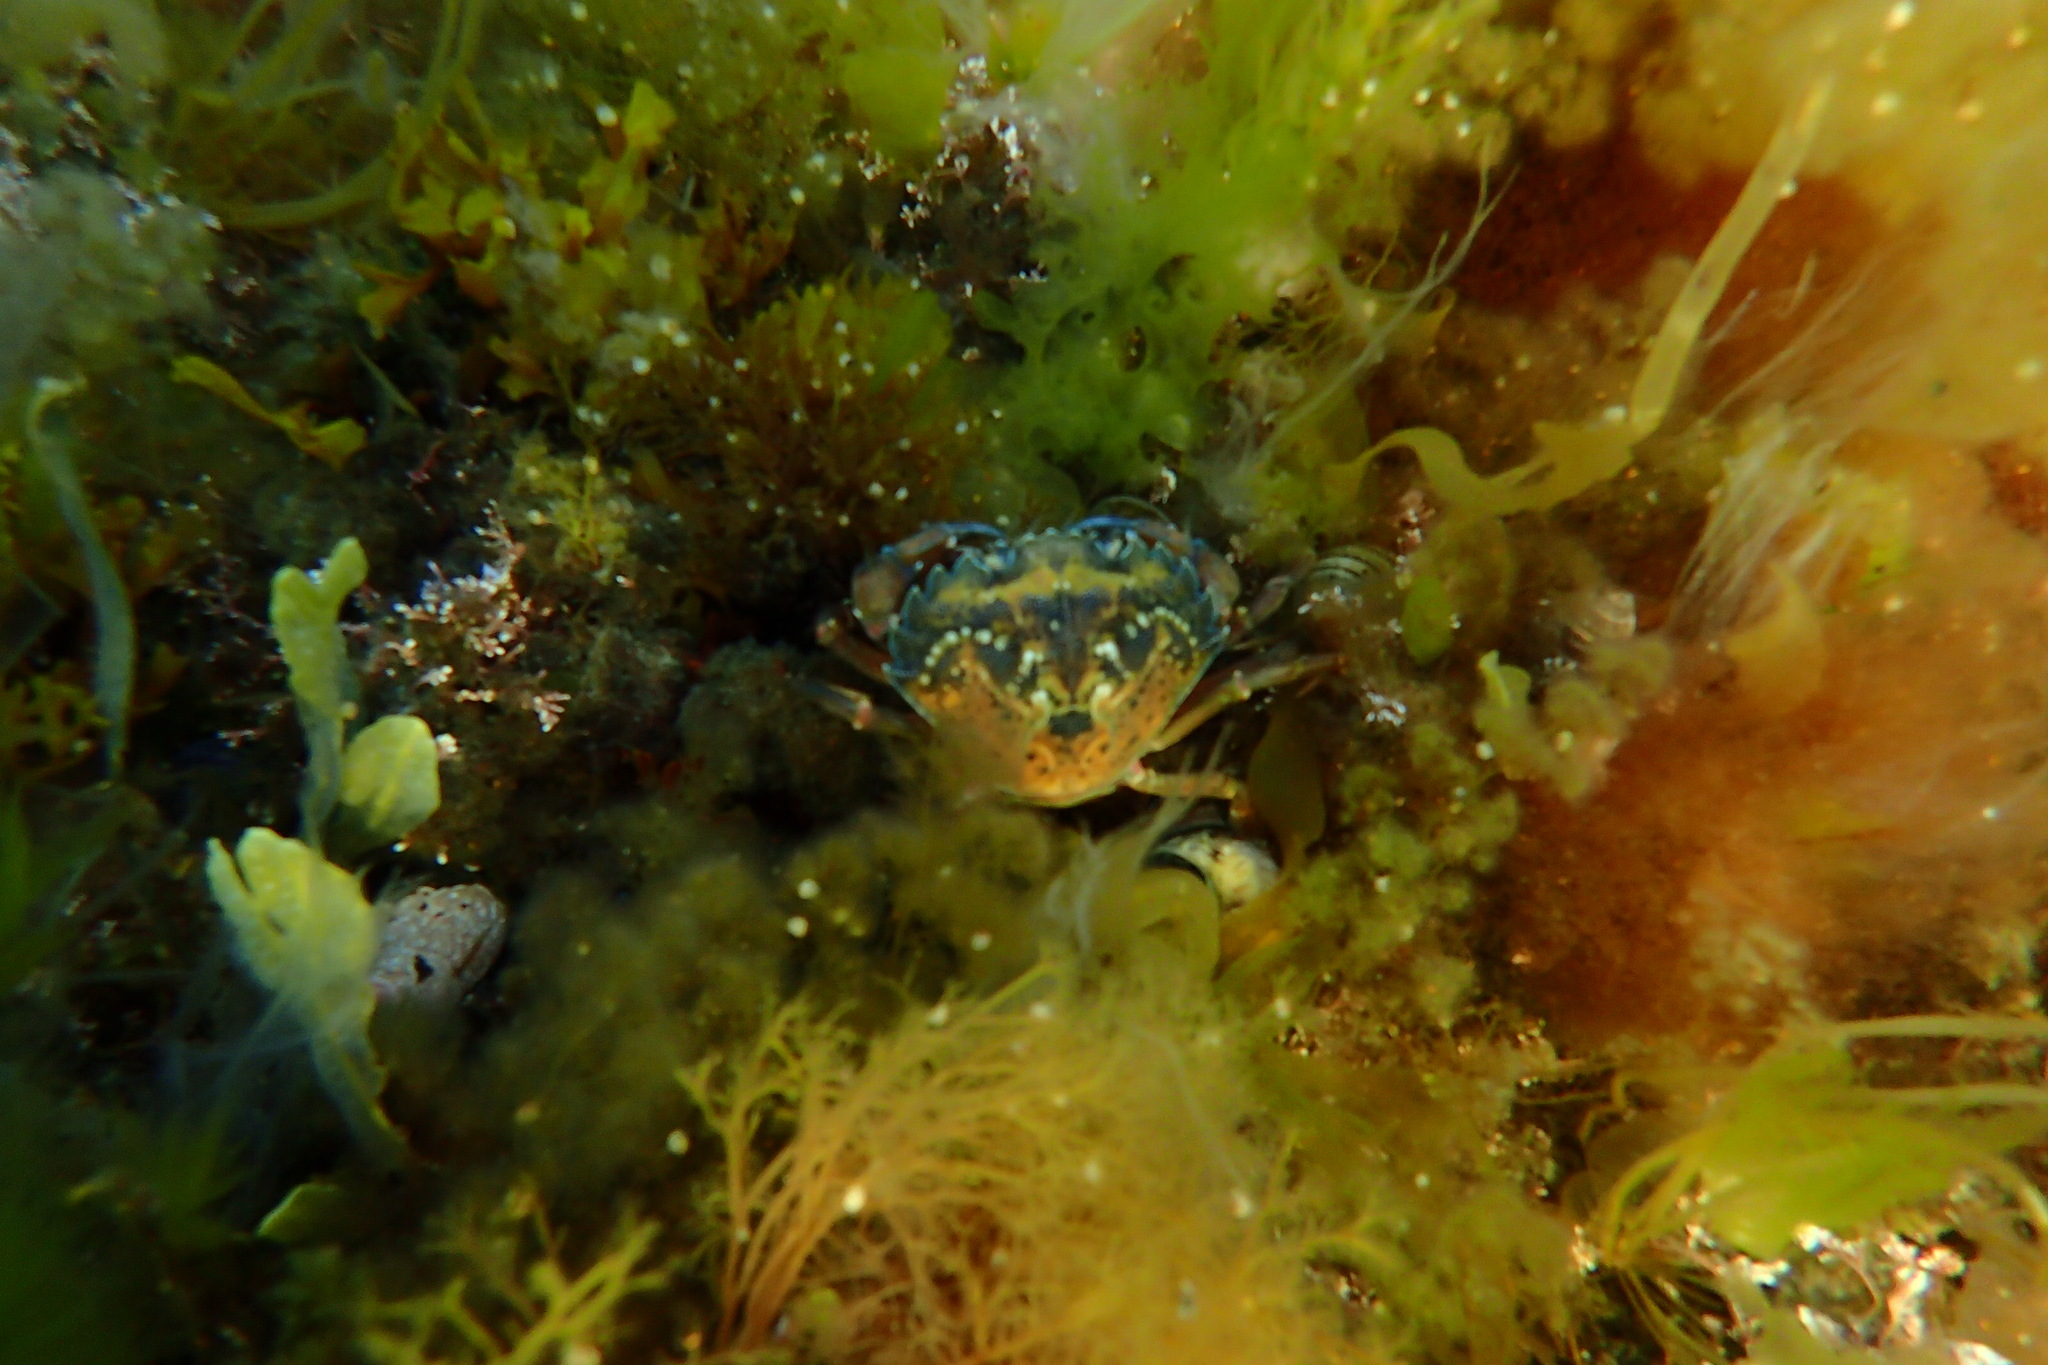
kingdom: Animalia
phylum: Arthropoda
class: Malacostraca
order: Decapoda
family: Carcinidae
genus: Carcinus
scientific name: Carcinus maenas
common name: European green crab
